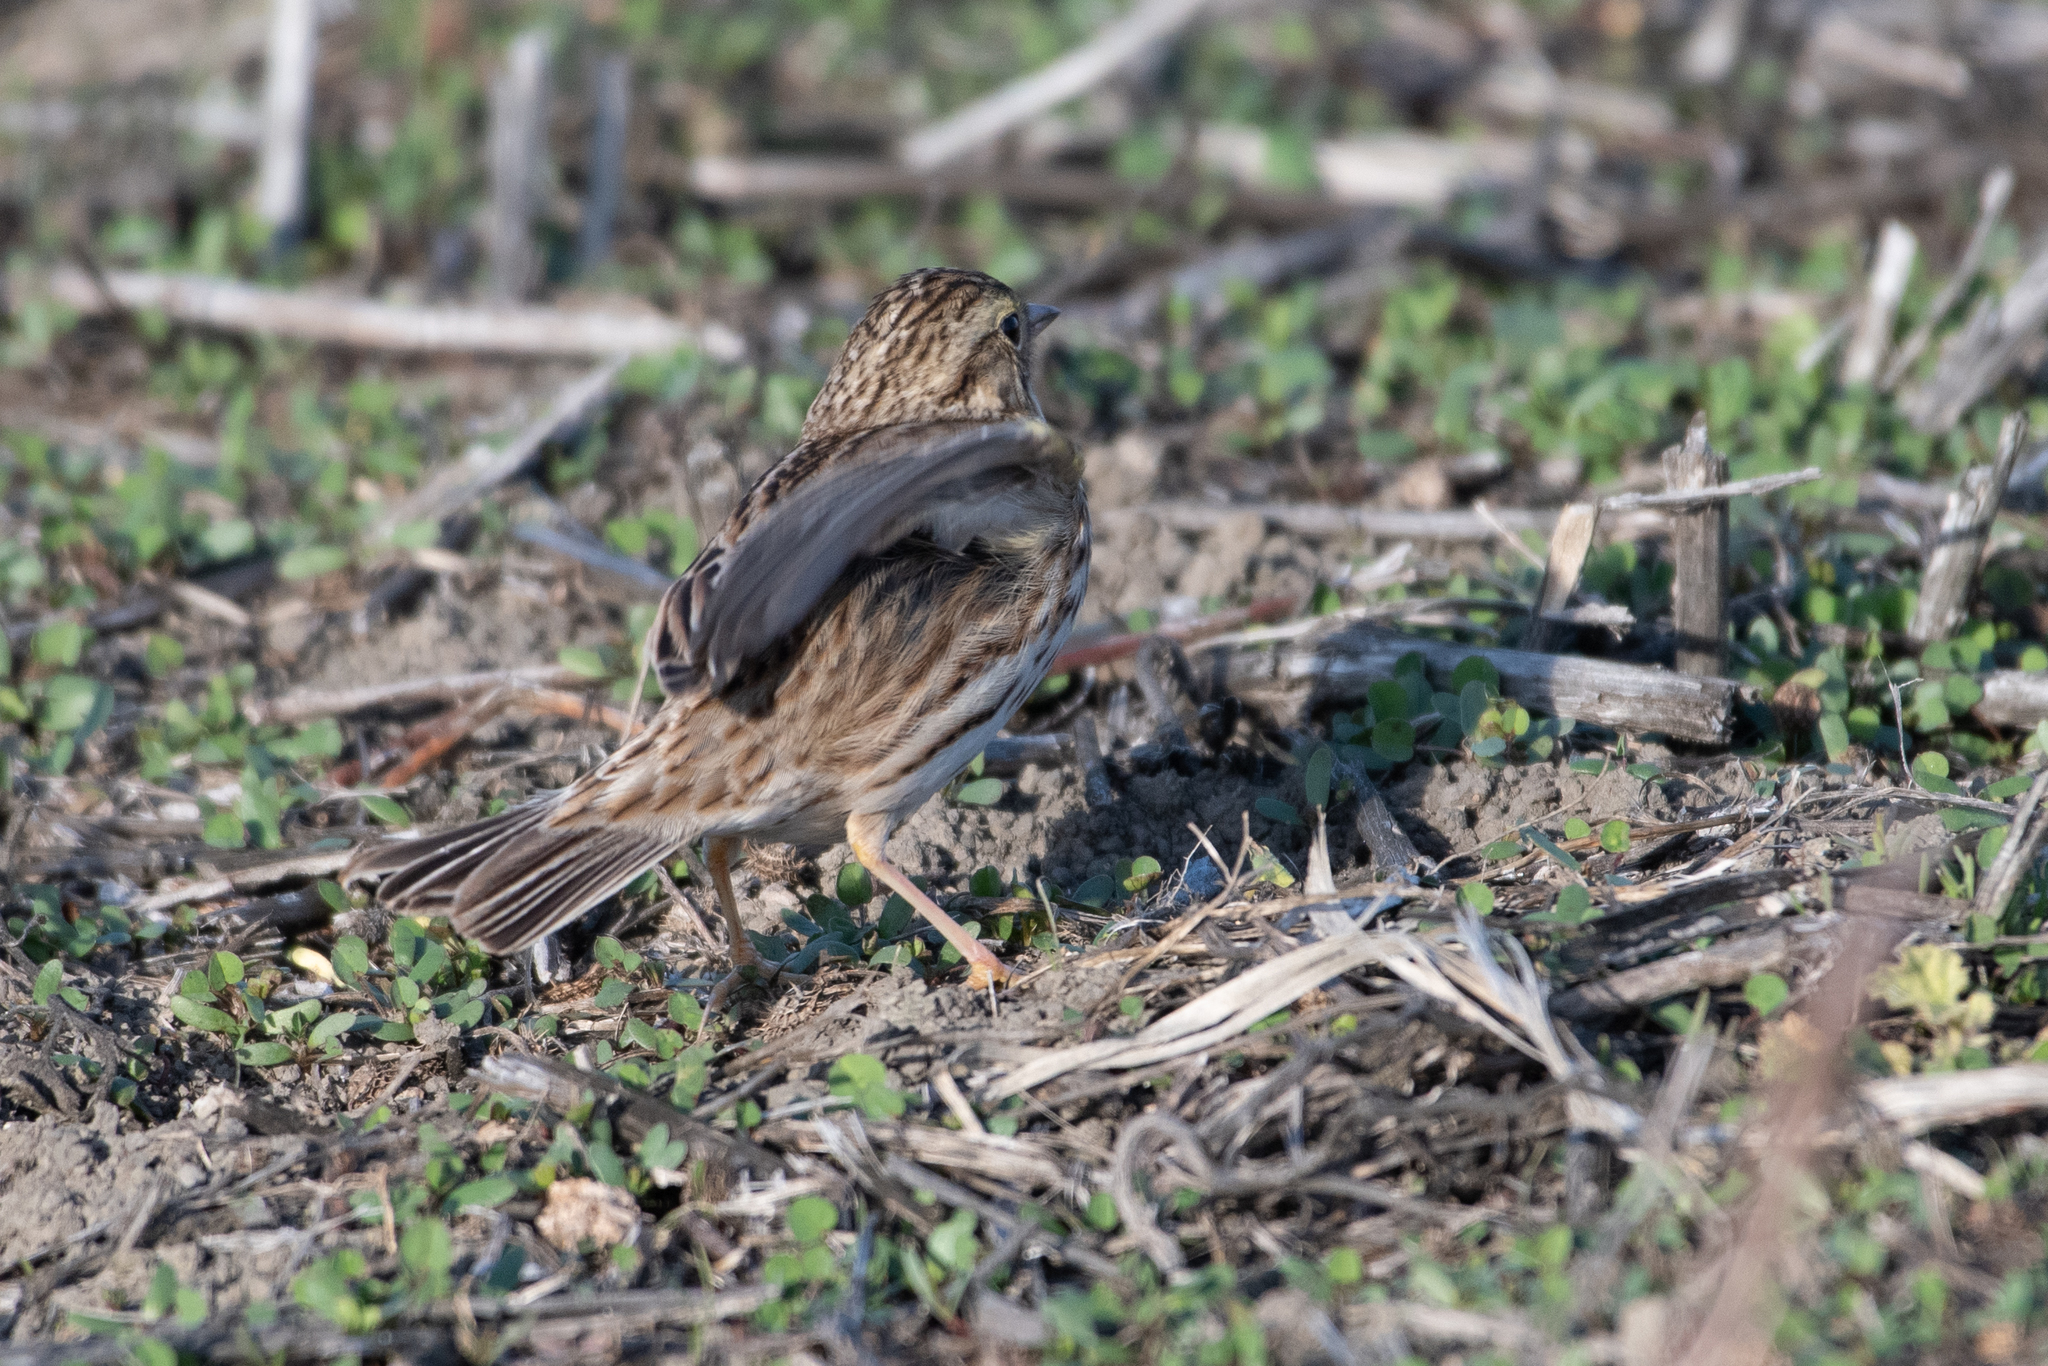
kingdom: Animalia
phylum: Chordata
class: Aves
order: Passeriformes
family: Passerellidae
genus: Passerculus
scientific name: Passerculus sandwichensis
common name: Savannah sparrow
